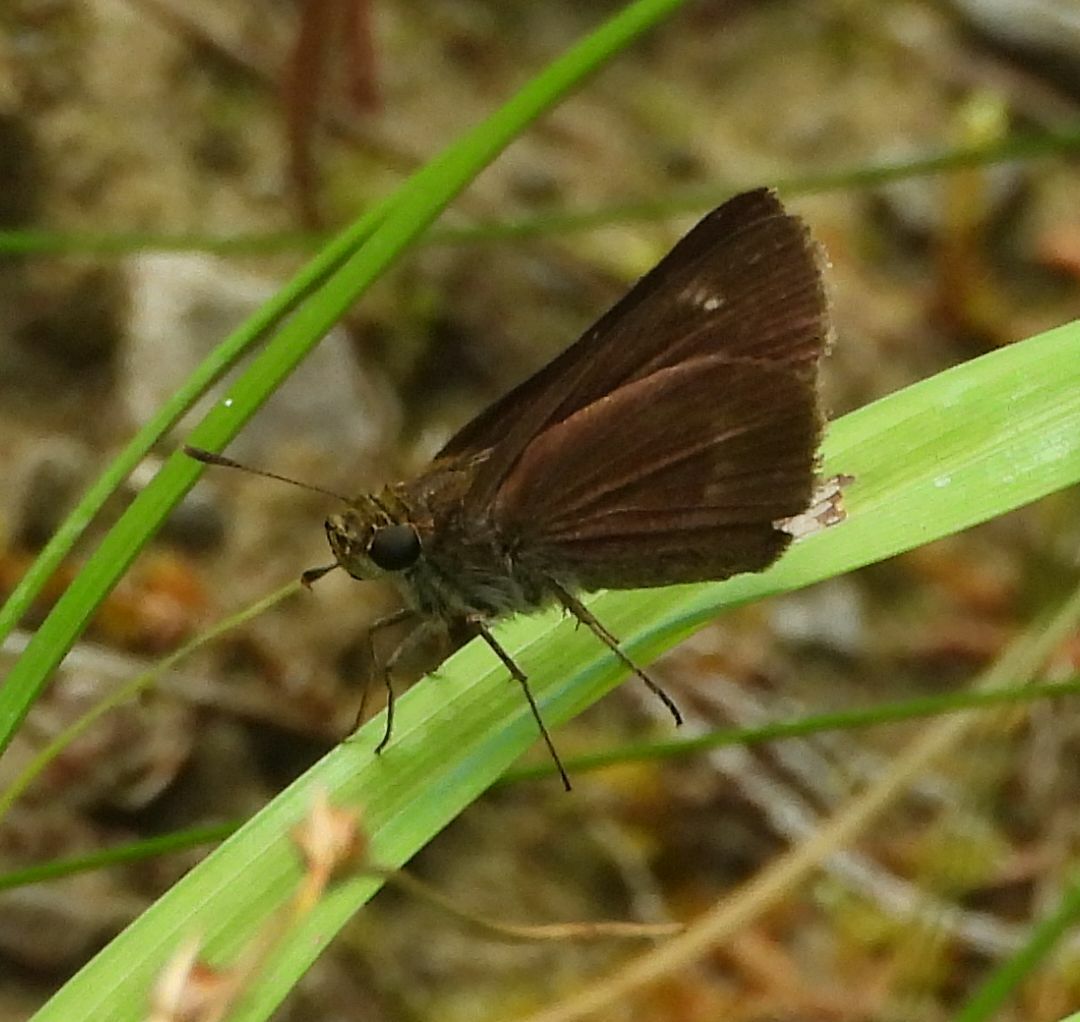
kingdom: Animalia
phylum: Arthropoda
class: Insecta
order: Lepidoptera
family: Hesperiidae
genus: Euphyes
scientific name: Euphyes vestris
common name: Dun skipper
